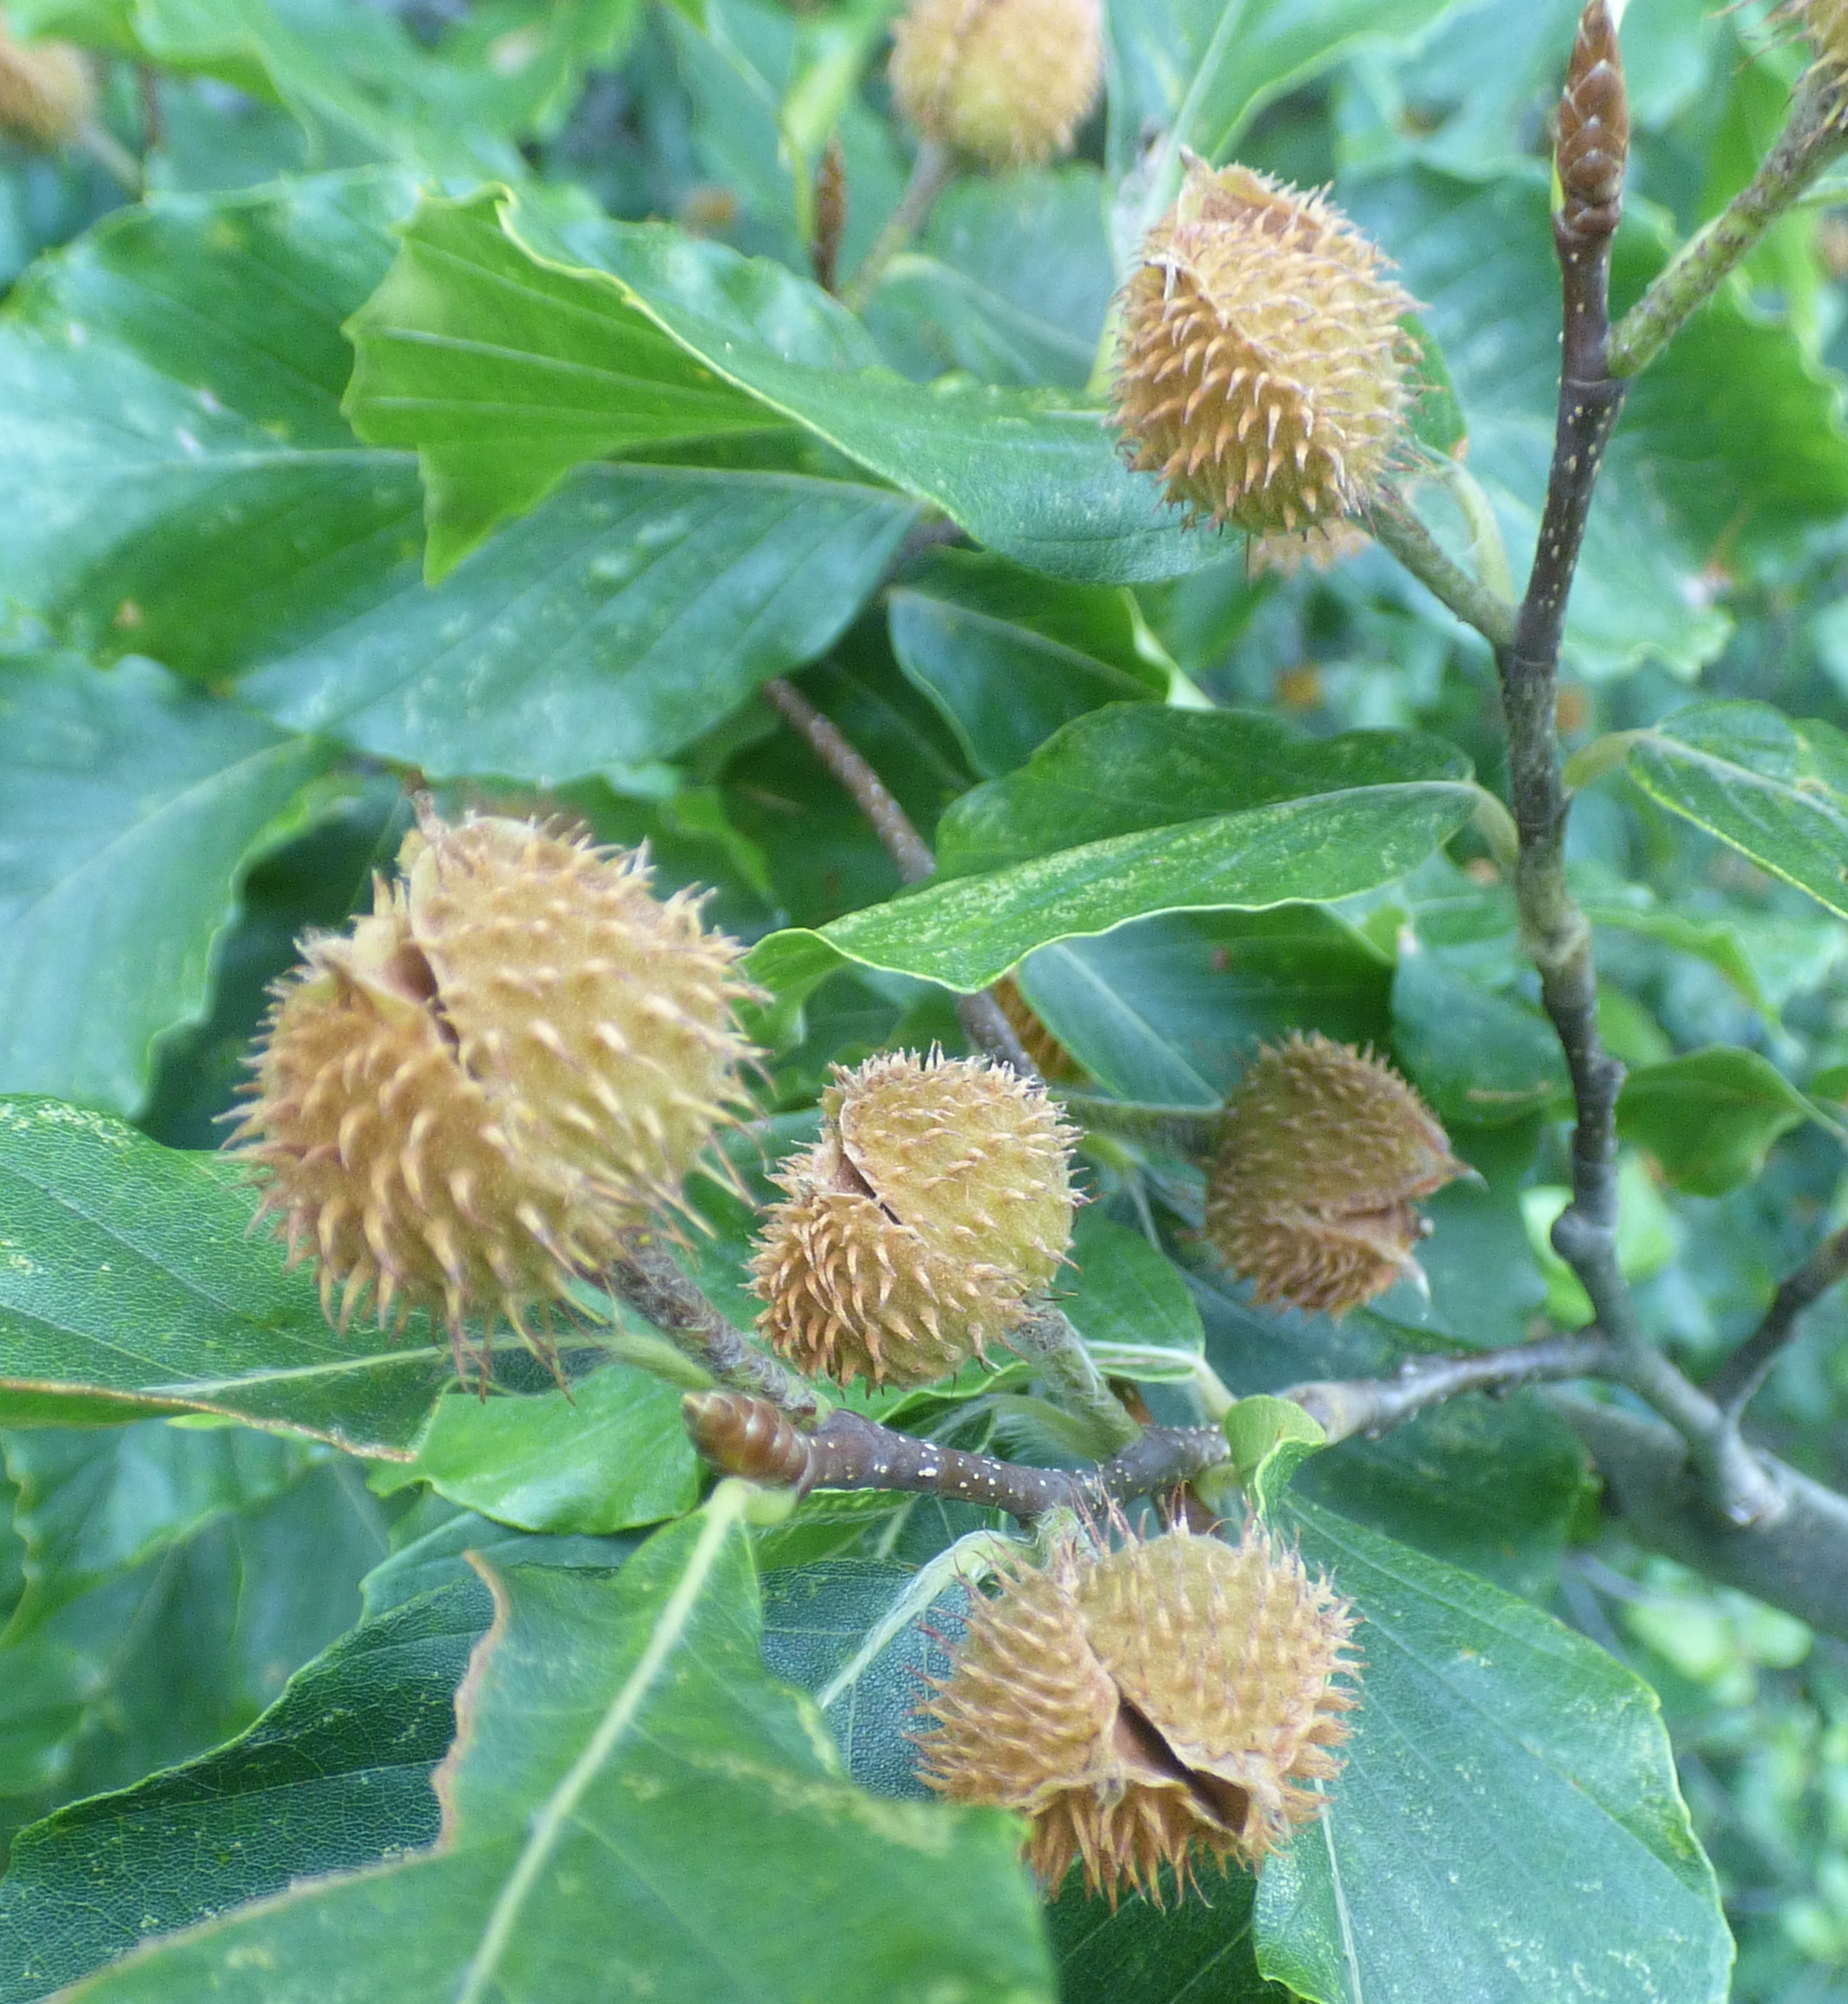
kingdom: Plantae
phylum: Tracheophyta
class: Magnoliopsida
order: Fagales
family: Fagaceae
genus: Fagus
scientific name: Fagus sylvatica
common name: Beech
